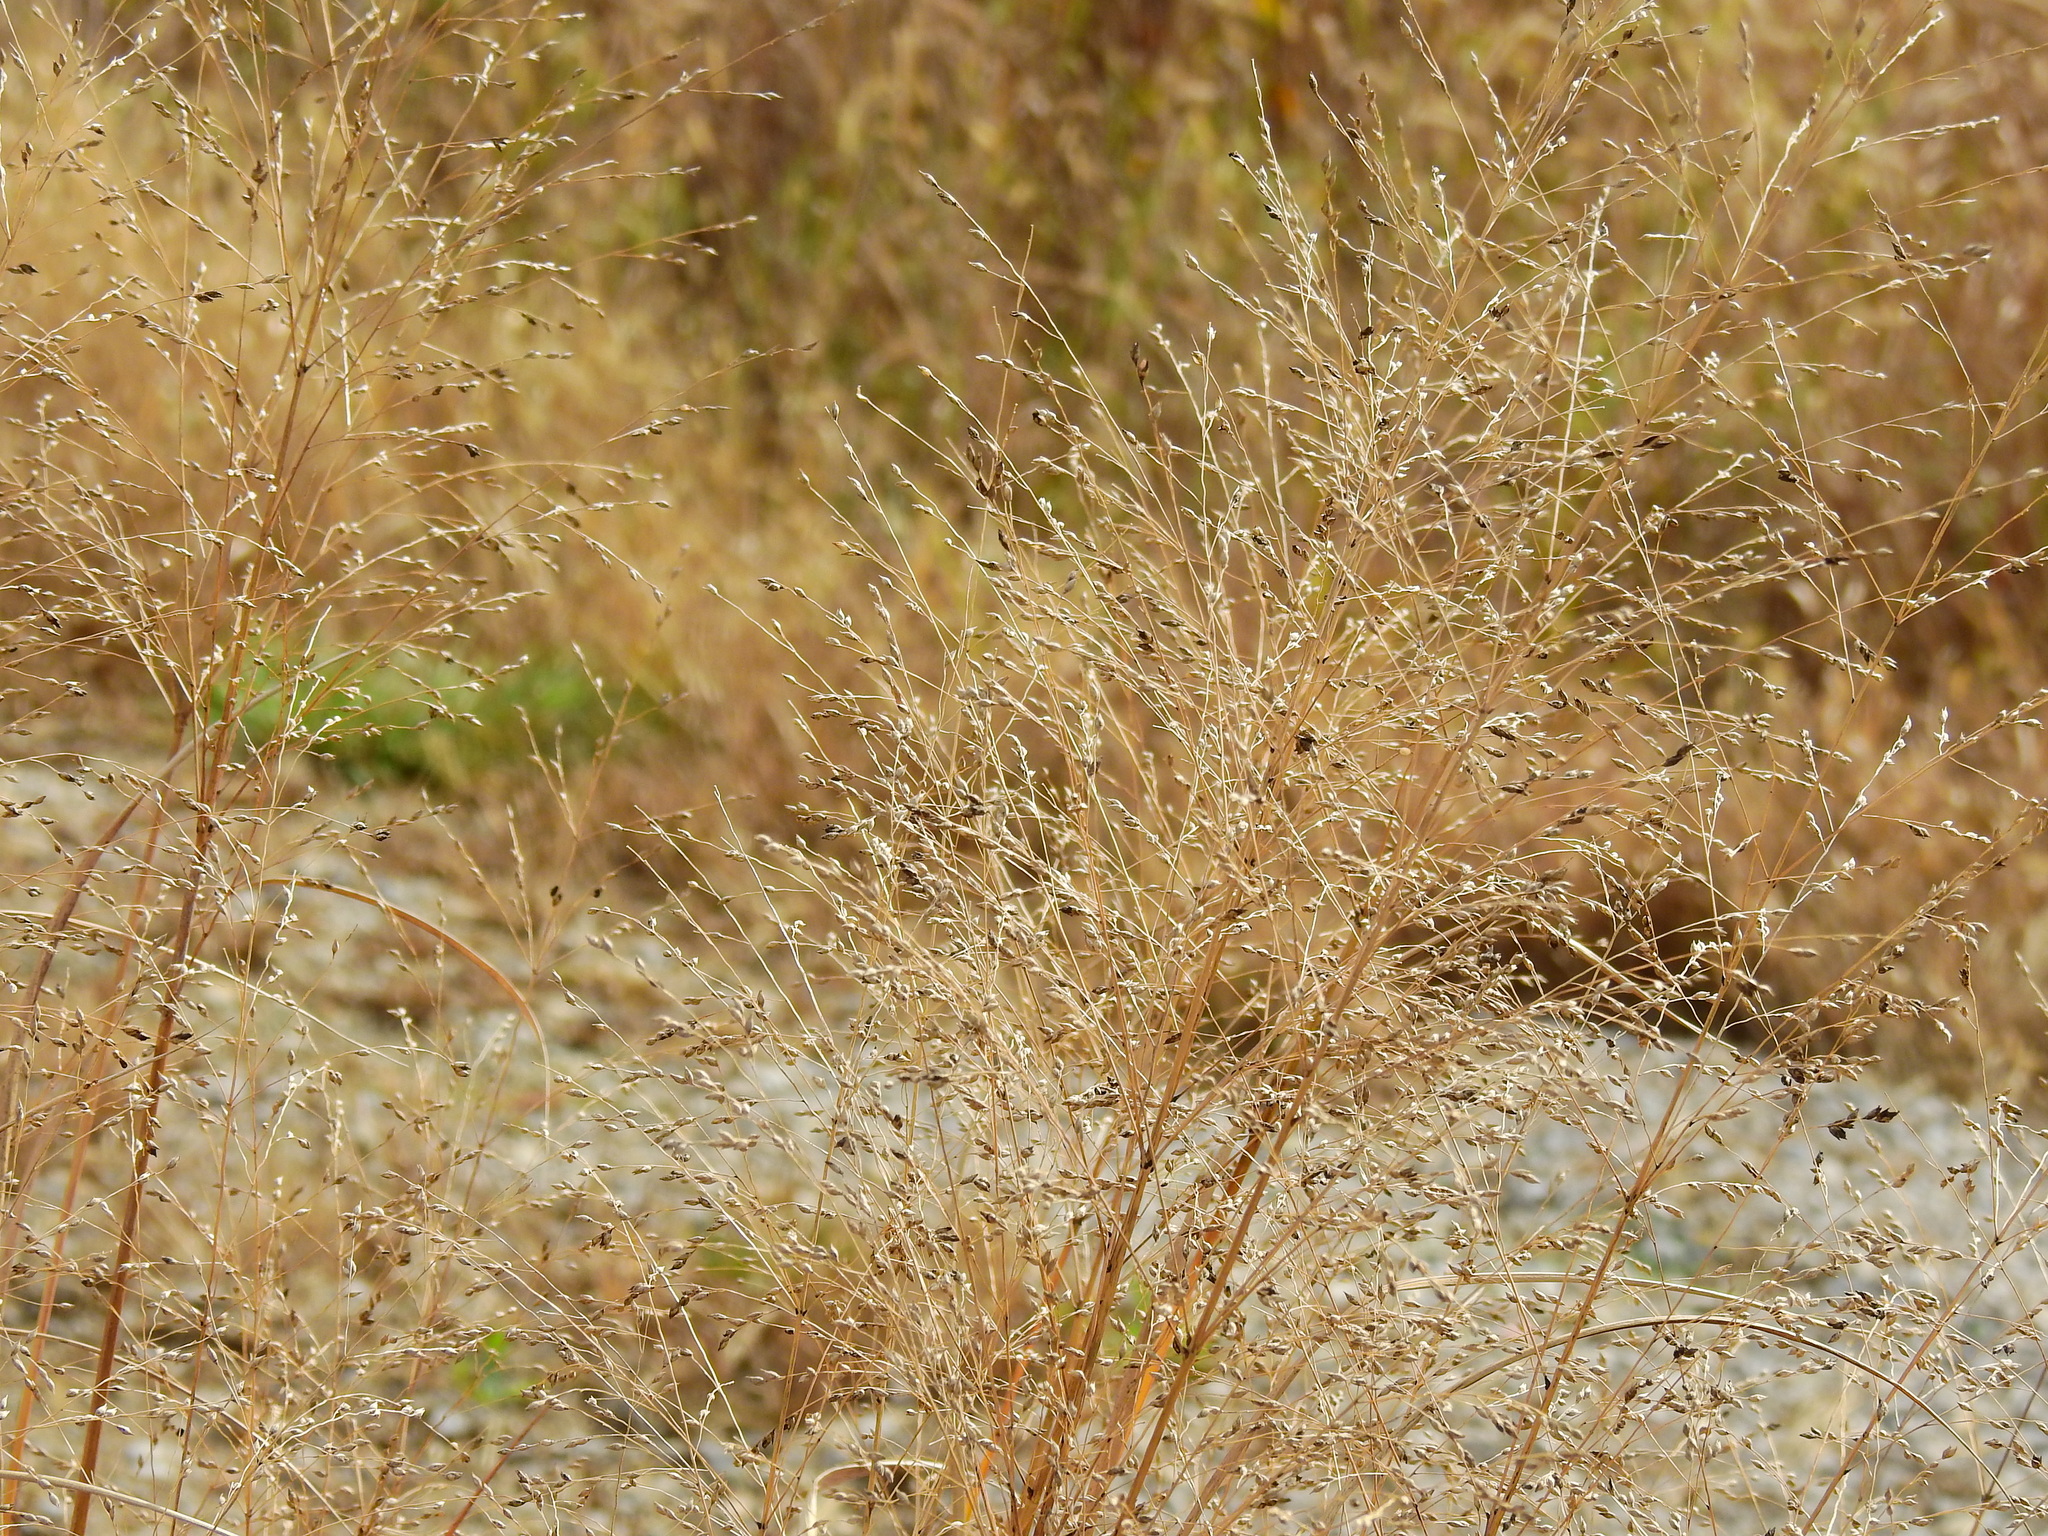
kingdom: Plantae
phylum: Tracheophyta
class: Liliopsida
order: Poales
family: Poaceae
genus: Panicum
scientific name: Panicum virgatum
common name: Switchgrass
